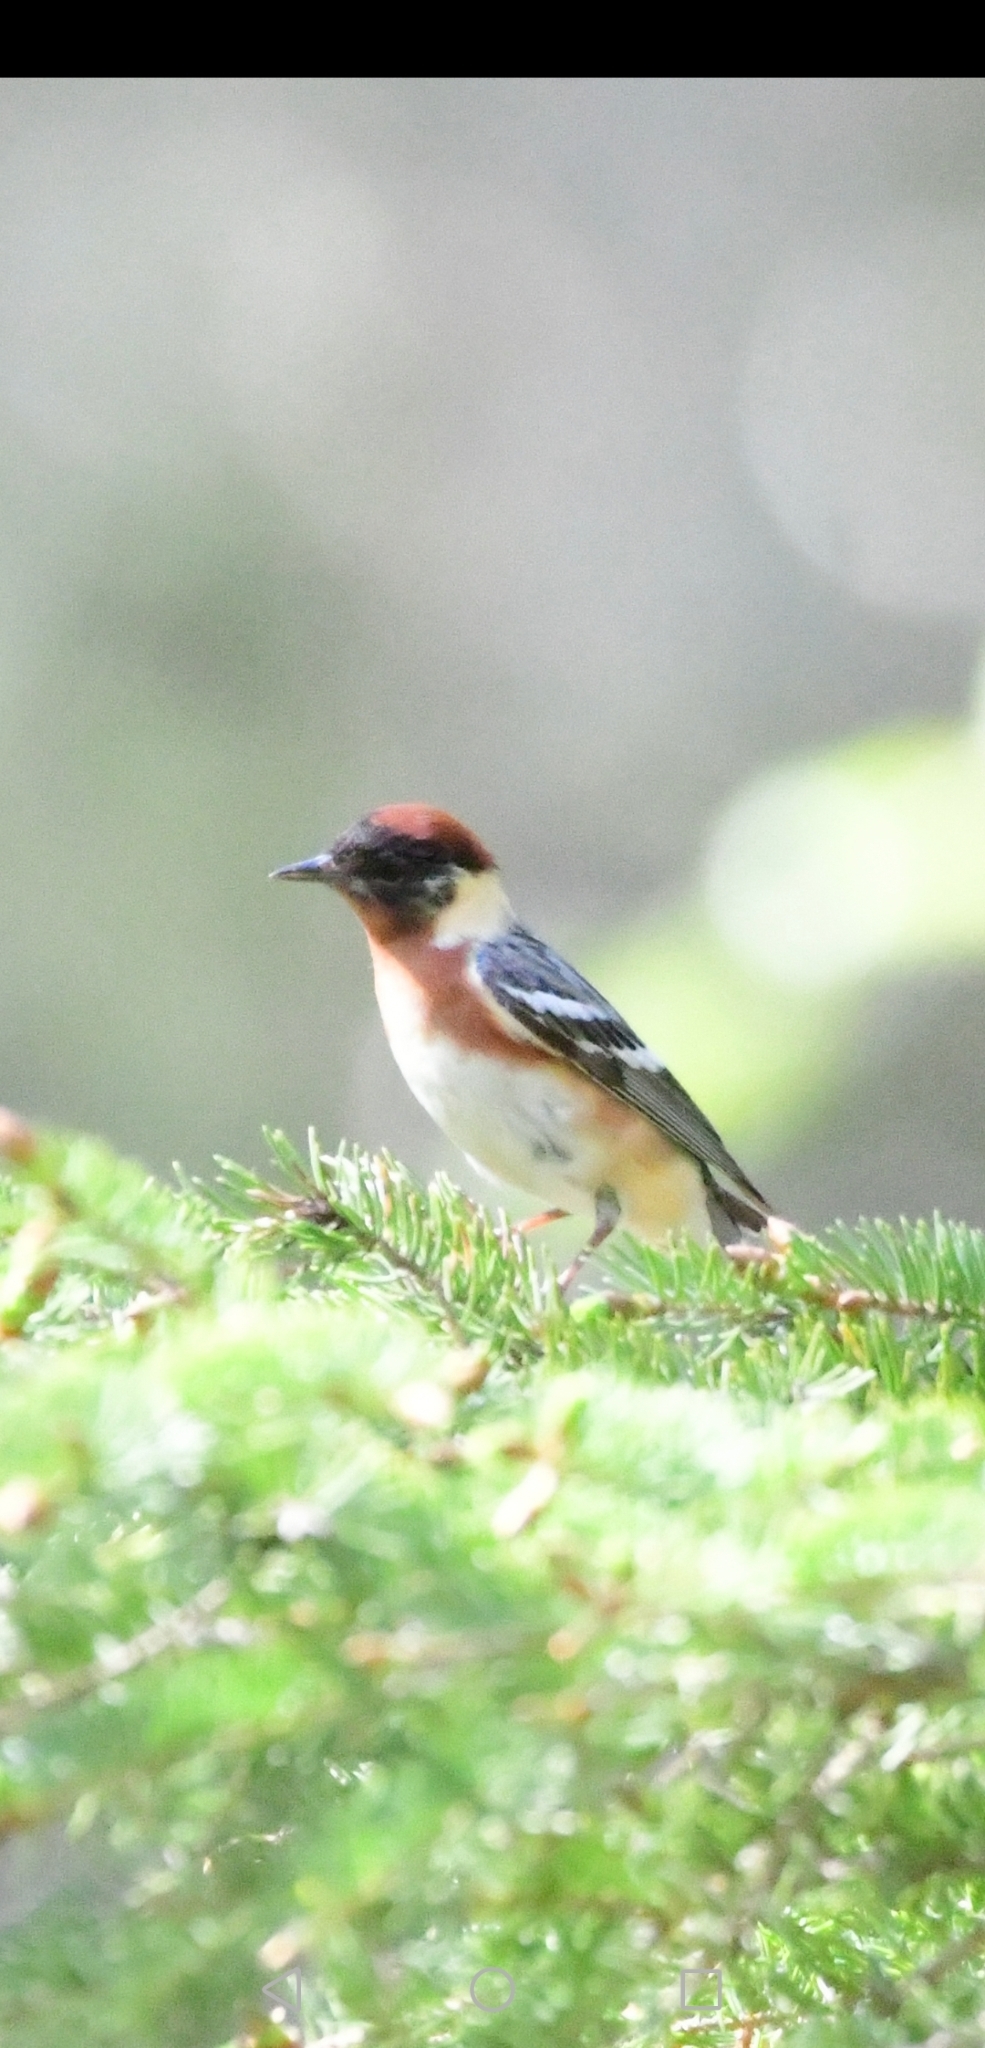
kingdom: Animalia
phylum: Chordata
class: Aves
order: Passeriformes
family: Parulidae
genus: Setophaga
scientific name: Setophaga castanea
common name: Bay-breasted warbler
